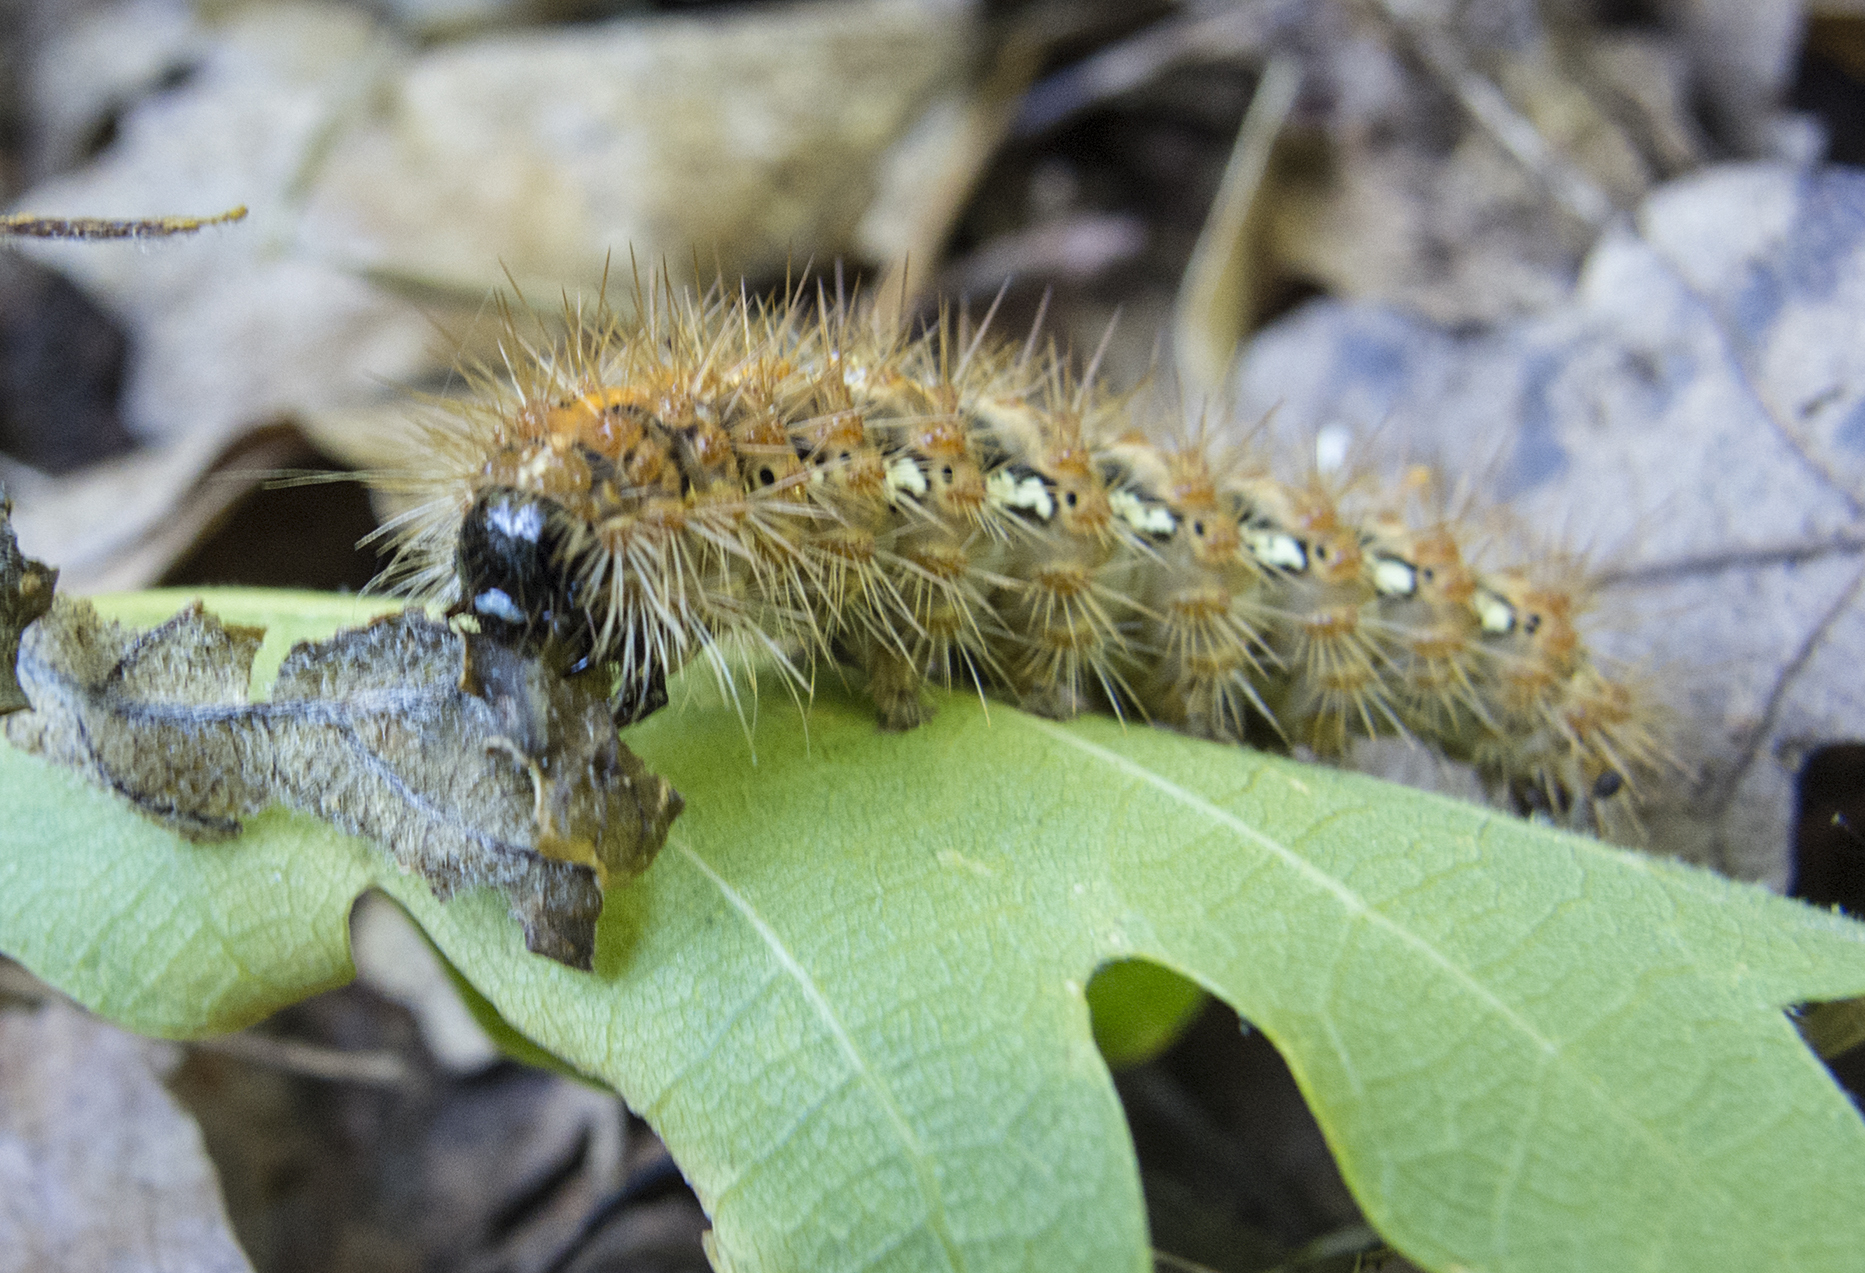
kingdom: Animalia
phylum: Arthropoda
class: Insecta
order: Lepidoptera
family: Erebidae
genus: Euplagia
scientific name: Euplagia quadripunctaria
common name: Jersey tiger
